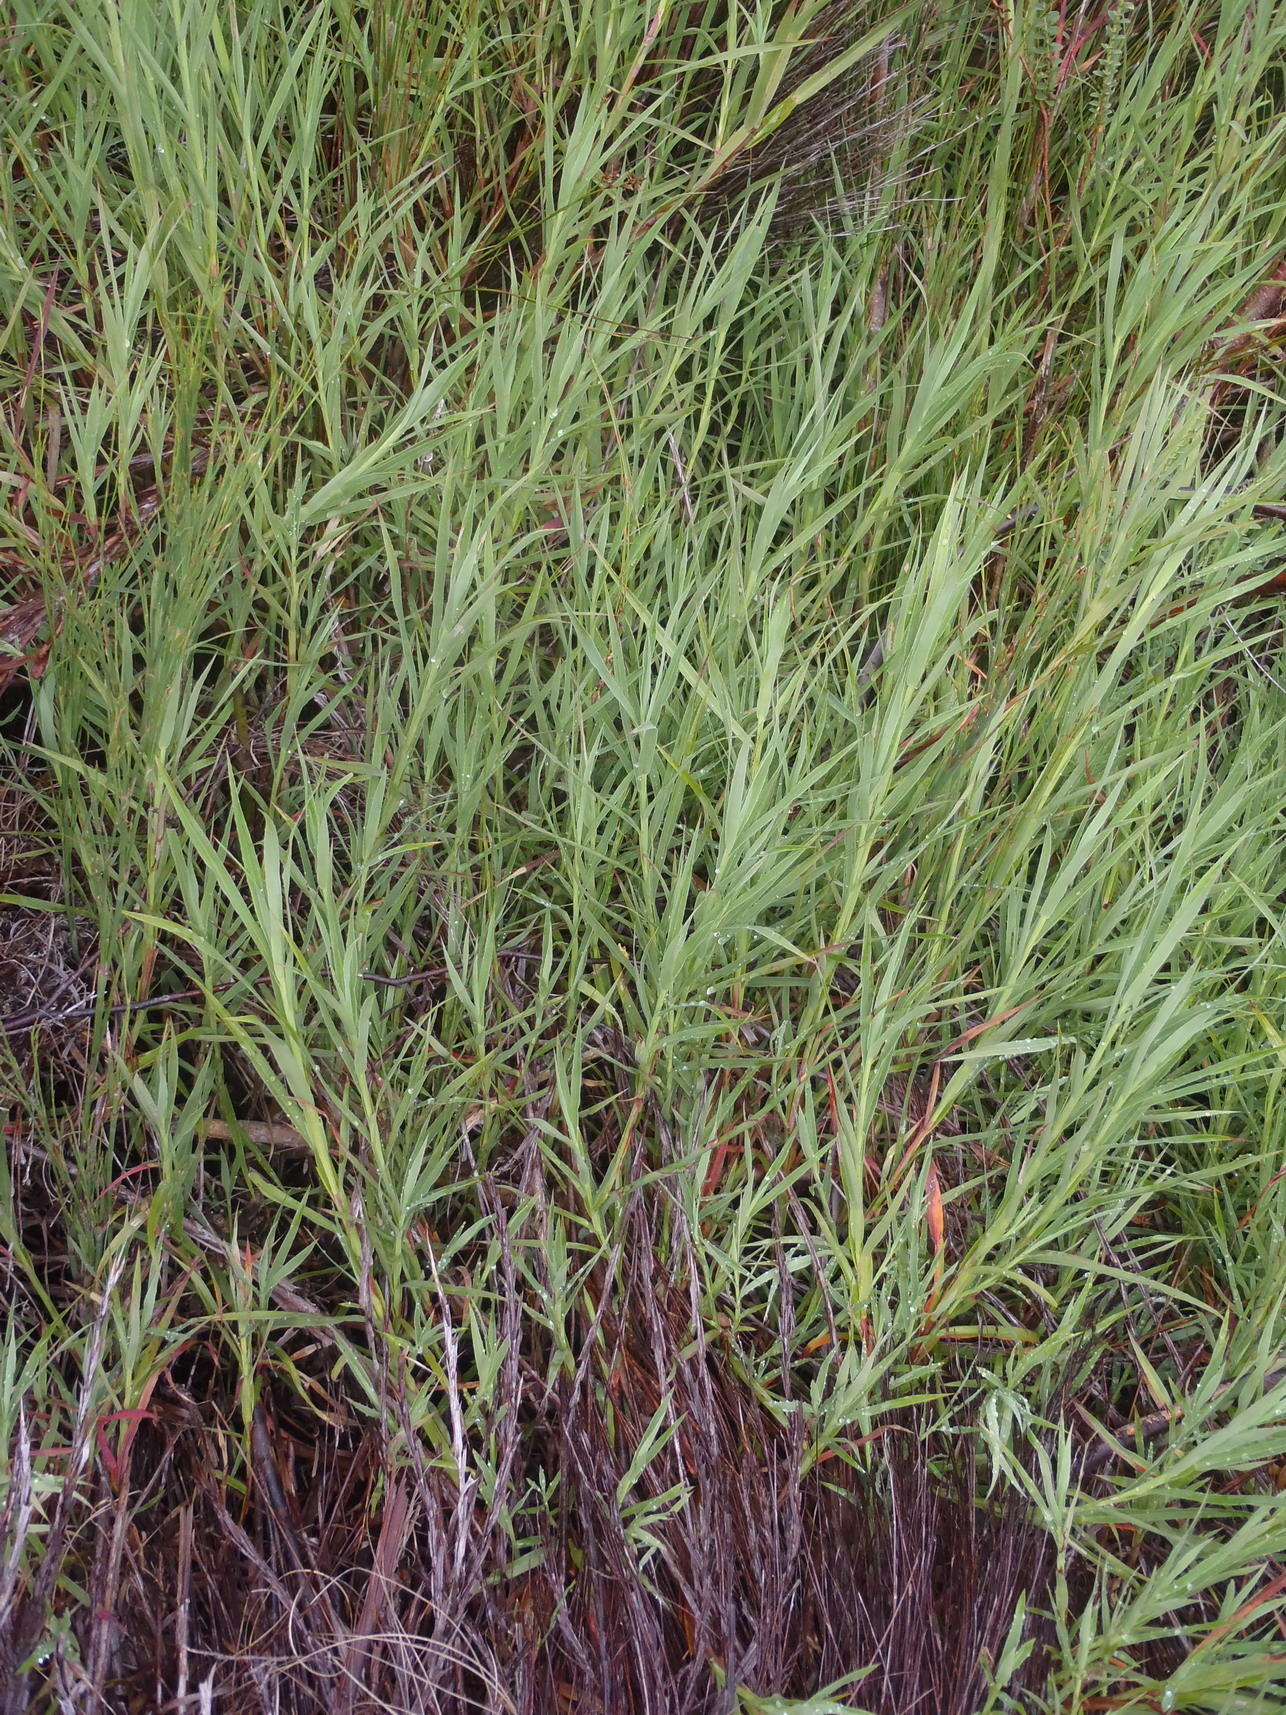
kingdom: Plantae
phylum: Tracheophyta
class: Magnoliopsida
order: Rosales
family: Rosaceae
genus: Cliffortia
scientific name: Cliffortia graminea
